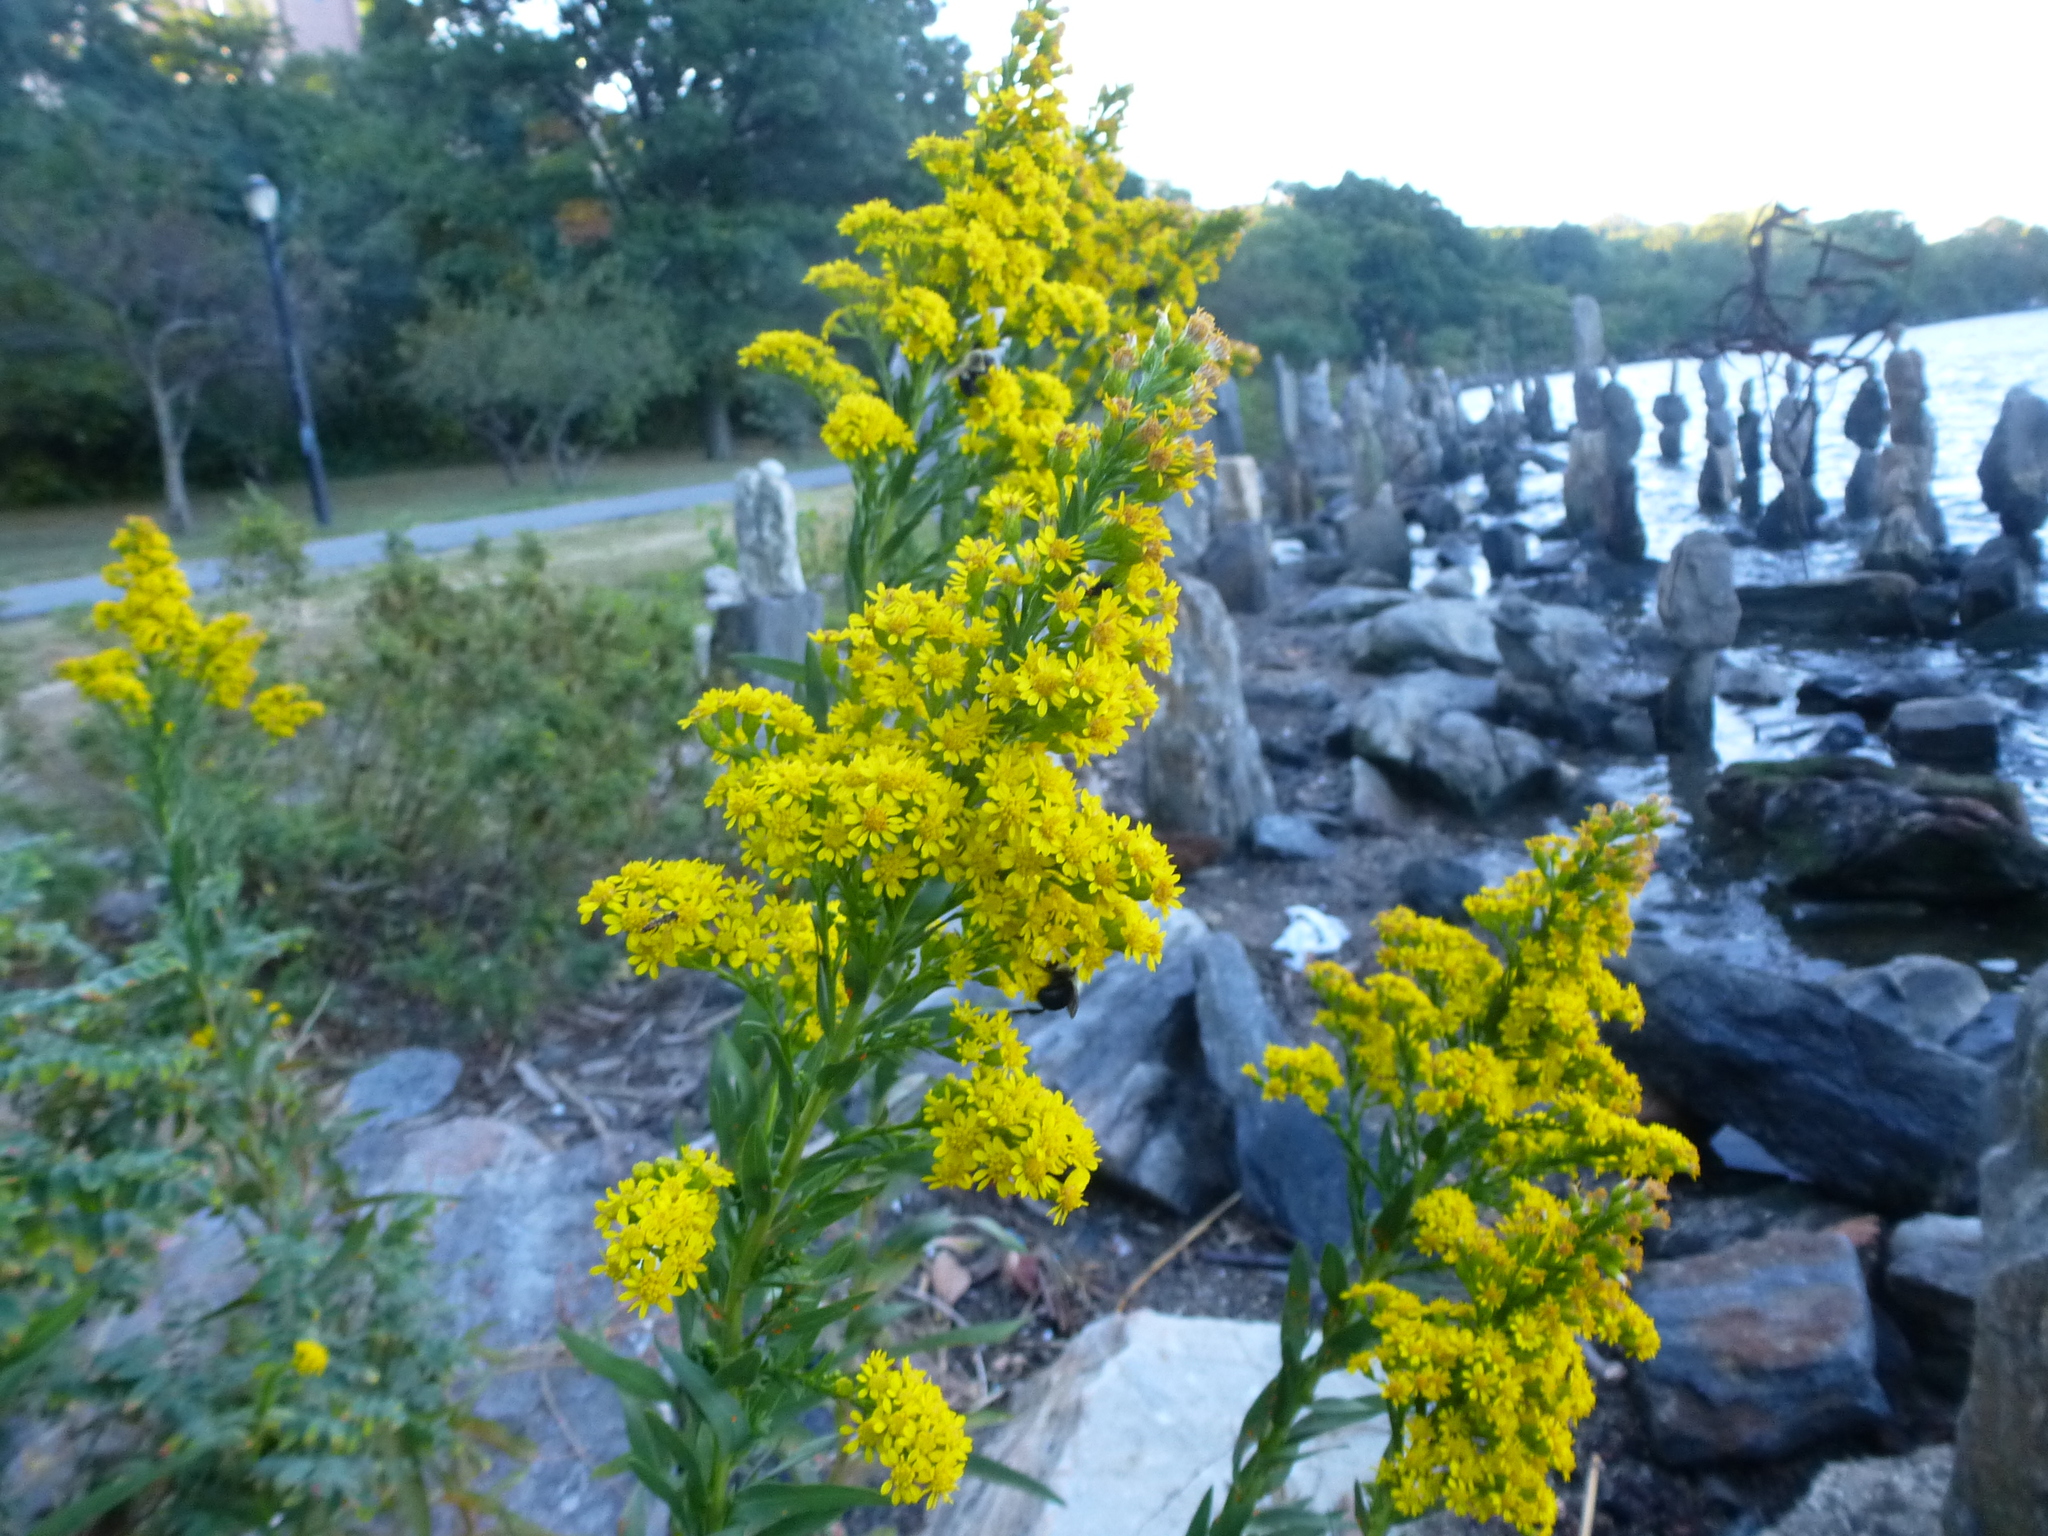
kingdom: Plantae
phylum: Tracheophyta
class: Magnoliopsida
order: Asterales
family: Asteraceae
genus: Solidago
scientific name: Solidago sempervirens
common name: Salt-marsh goldenrod
